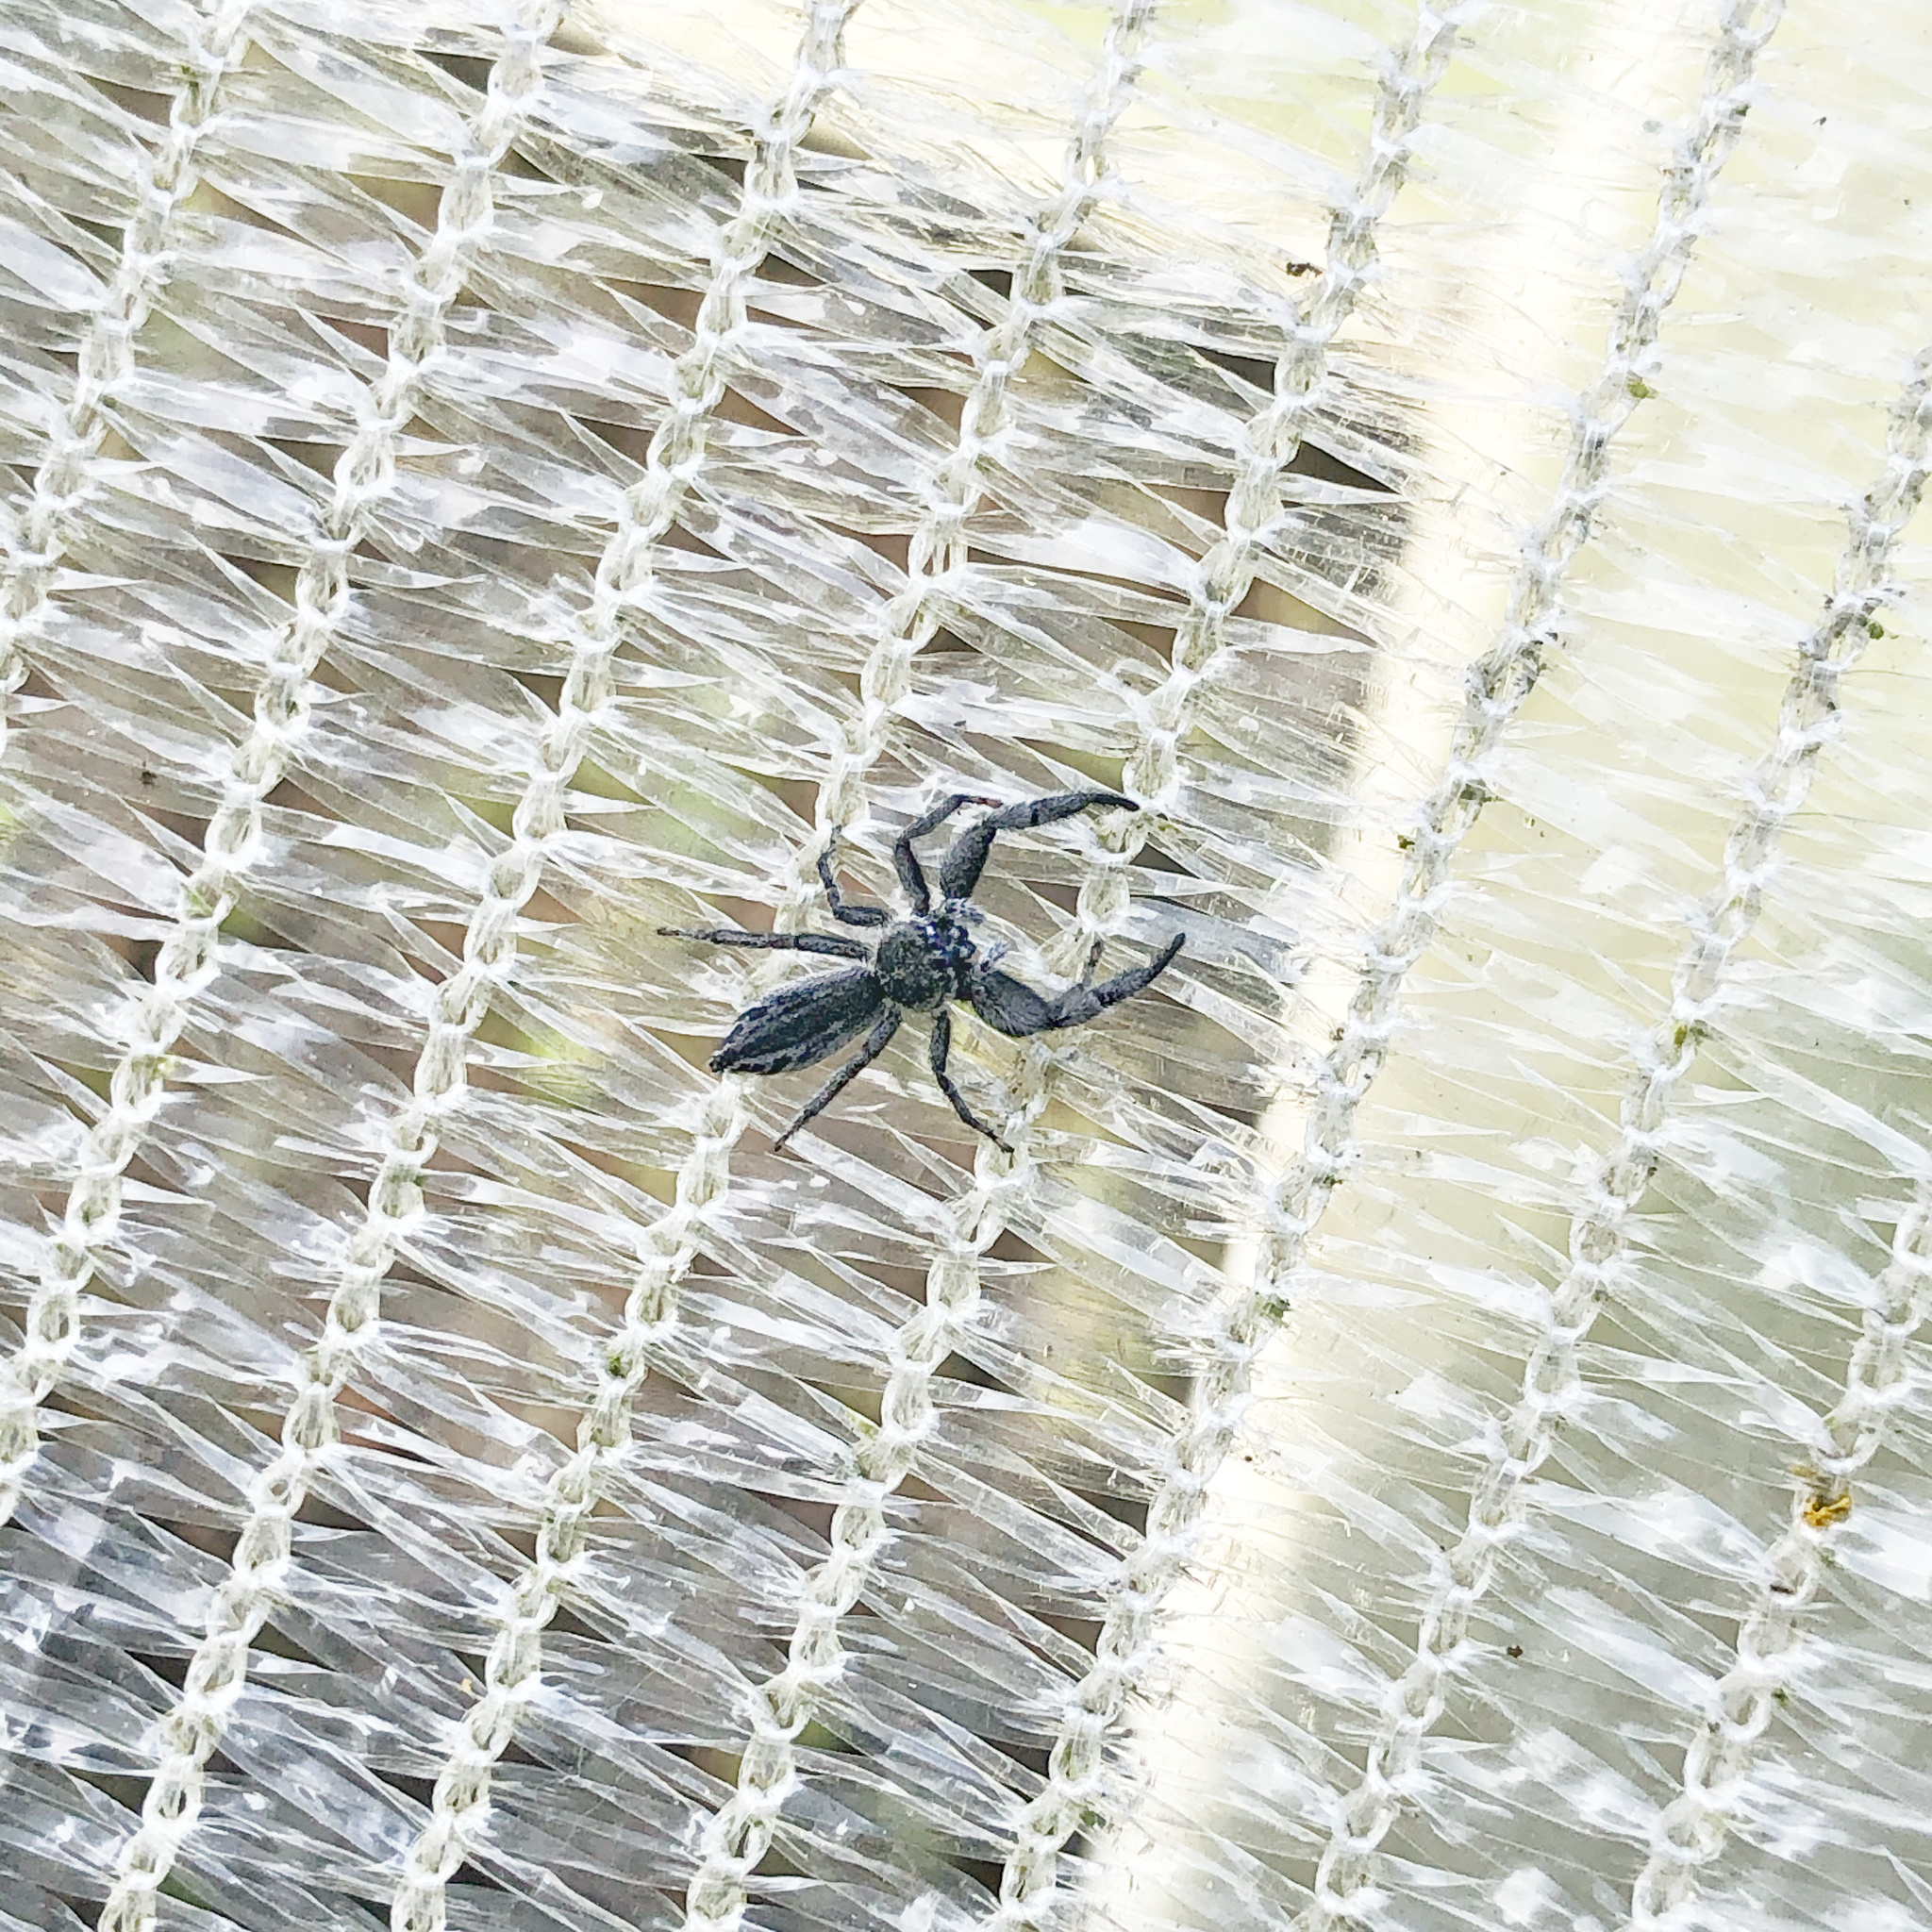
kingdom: Animalia
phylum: Arthropoda
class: Arachnida
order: Araneae
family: Salticidae
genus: Holoplatys
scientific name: Holoplatys apressus
